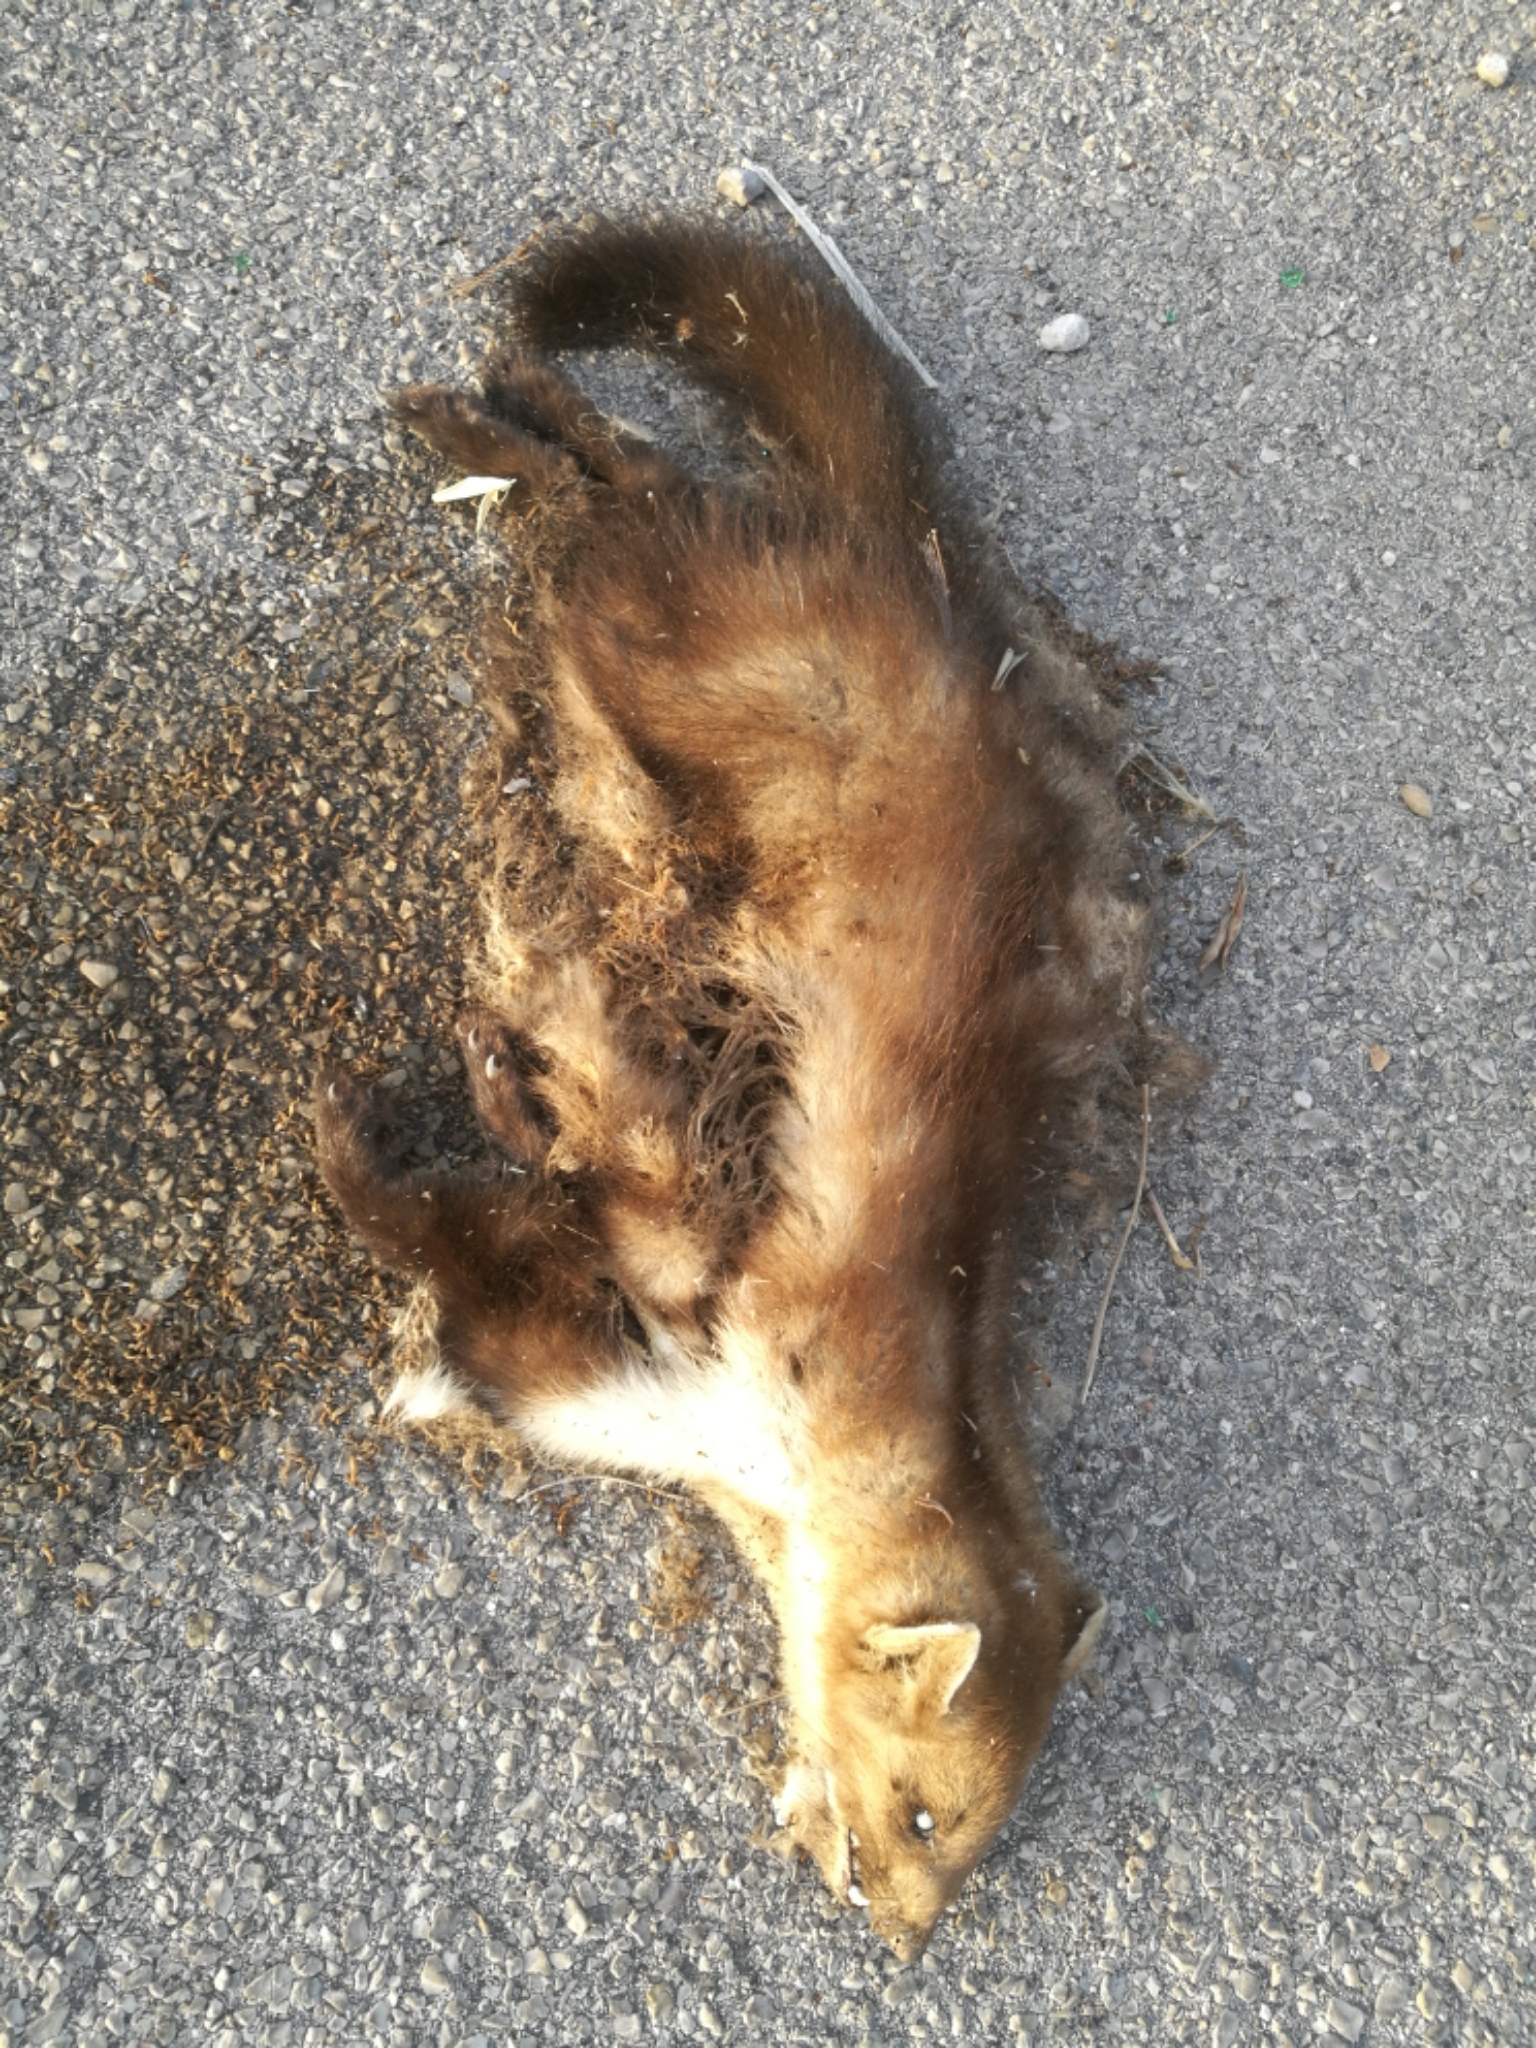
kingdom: Animalia
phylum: Chordata
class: Mammalia
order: Carnivora
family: Mustelidae
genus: Martes
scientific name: Martes foina
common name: Beech marten
